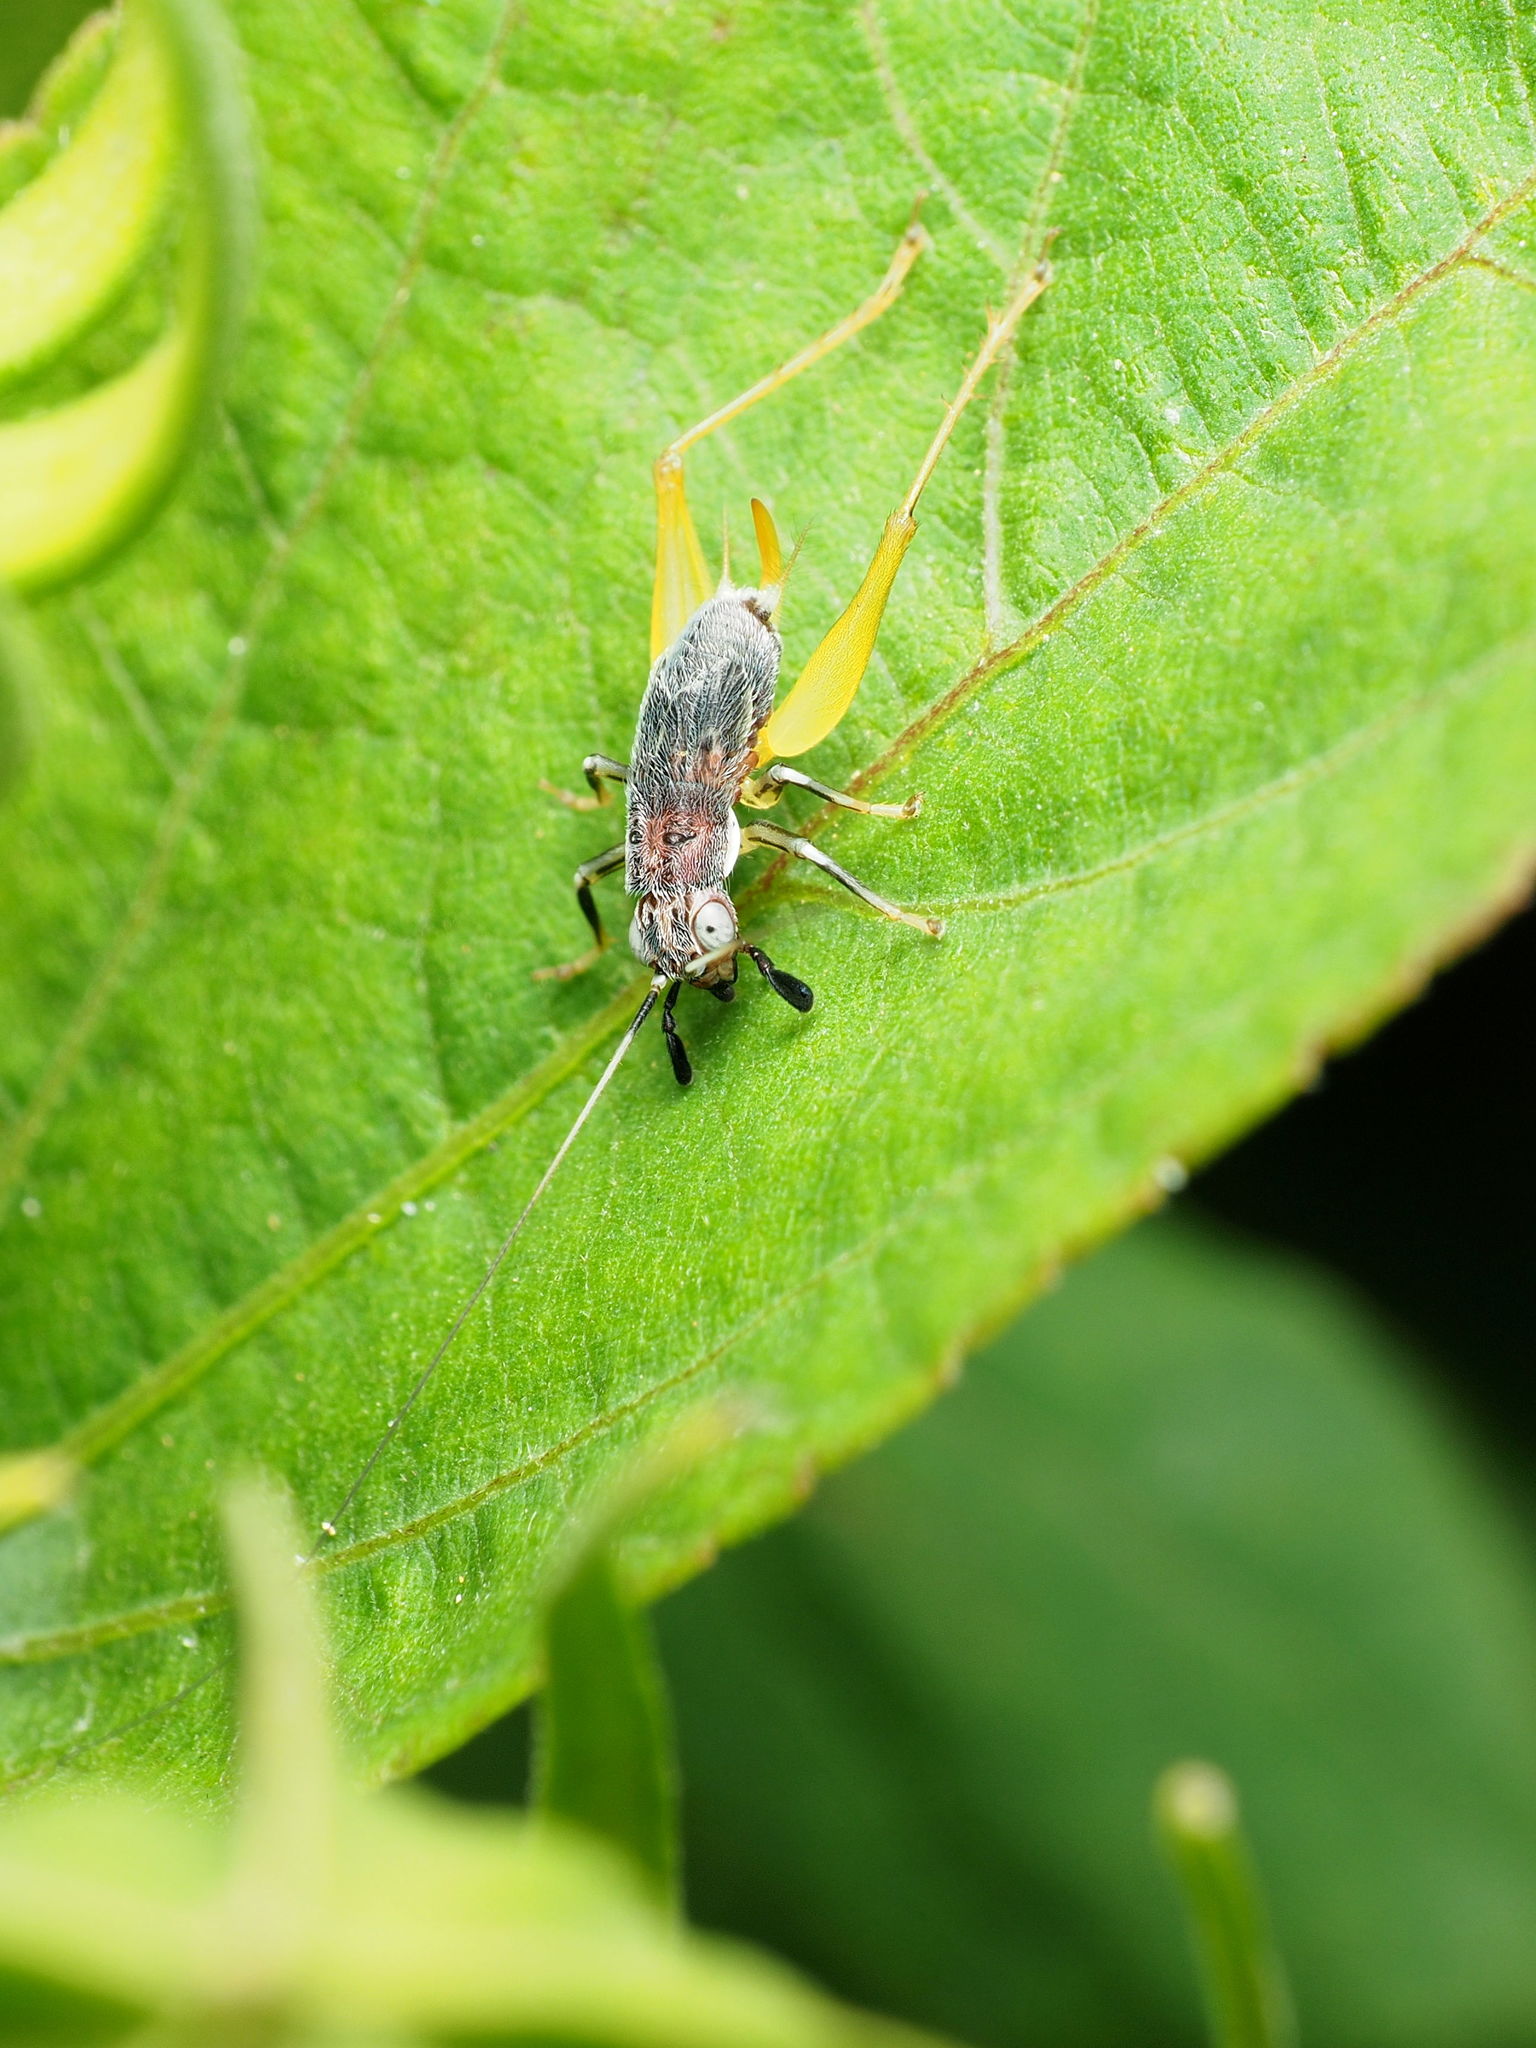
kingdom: Animalia
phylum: Arthropoda
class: Insecta
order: Orthoptera
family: Trigonidiidae
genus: Phyllopalpus
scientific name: Phyllopalpus pulchellus
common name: Handsome trig
